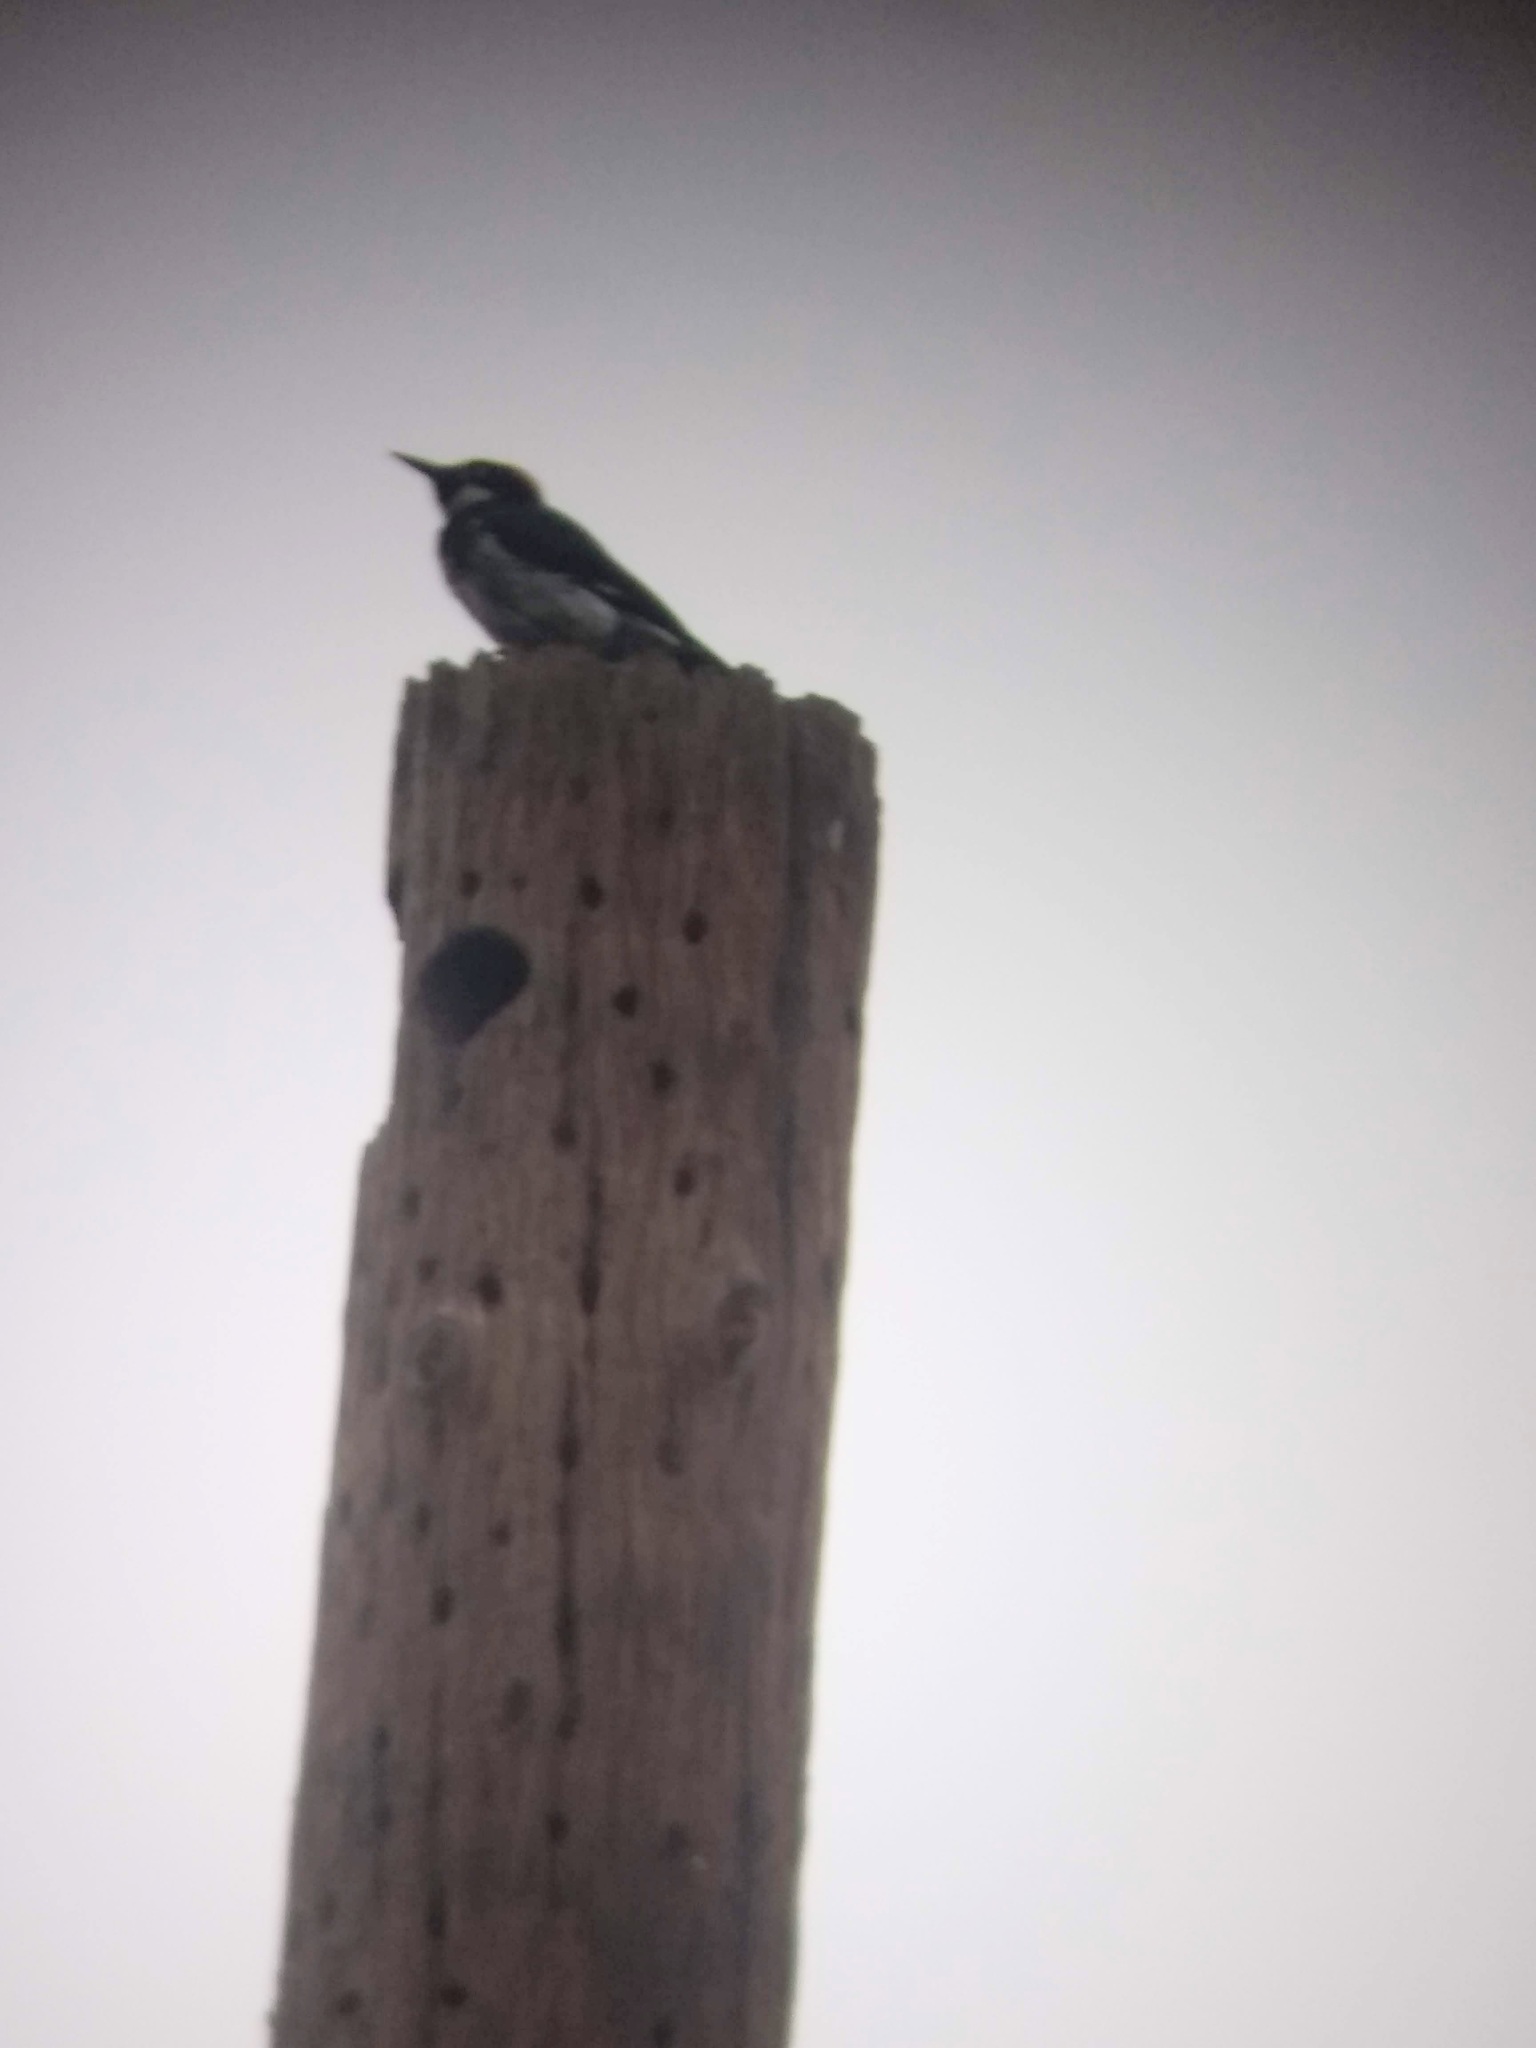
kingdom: Animalia
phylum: Chordata
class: Aves
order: Piciformes
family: Picidae
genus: Melanerpes
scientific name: Melanerpes formicivorus
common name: Acorn woodpecker
